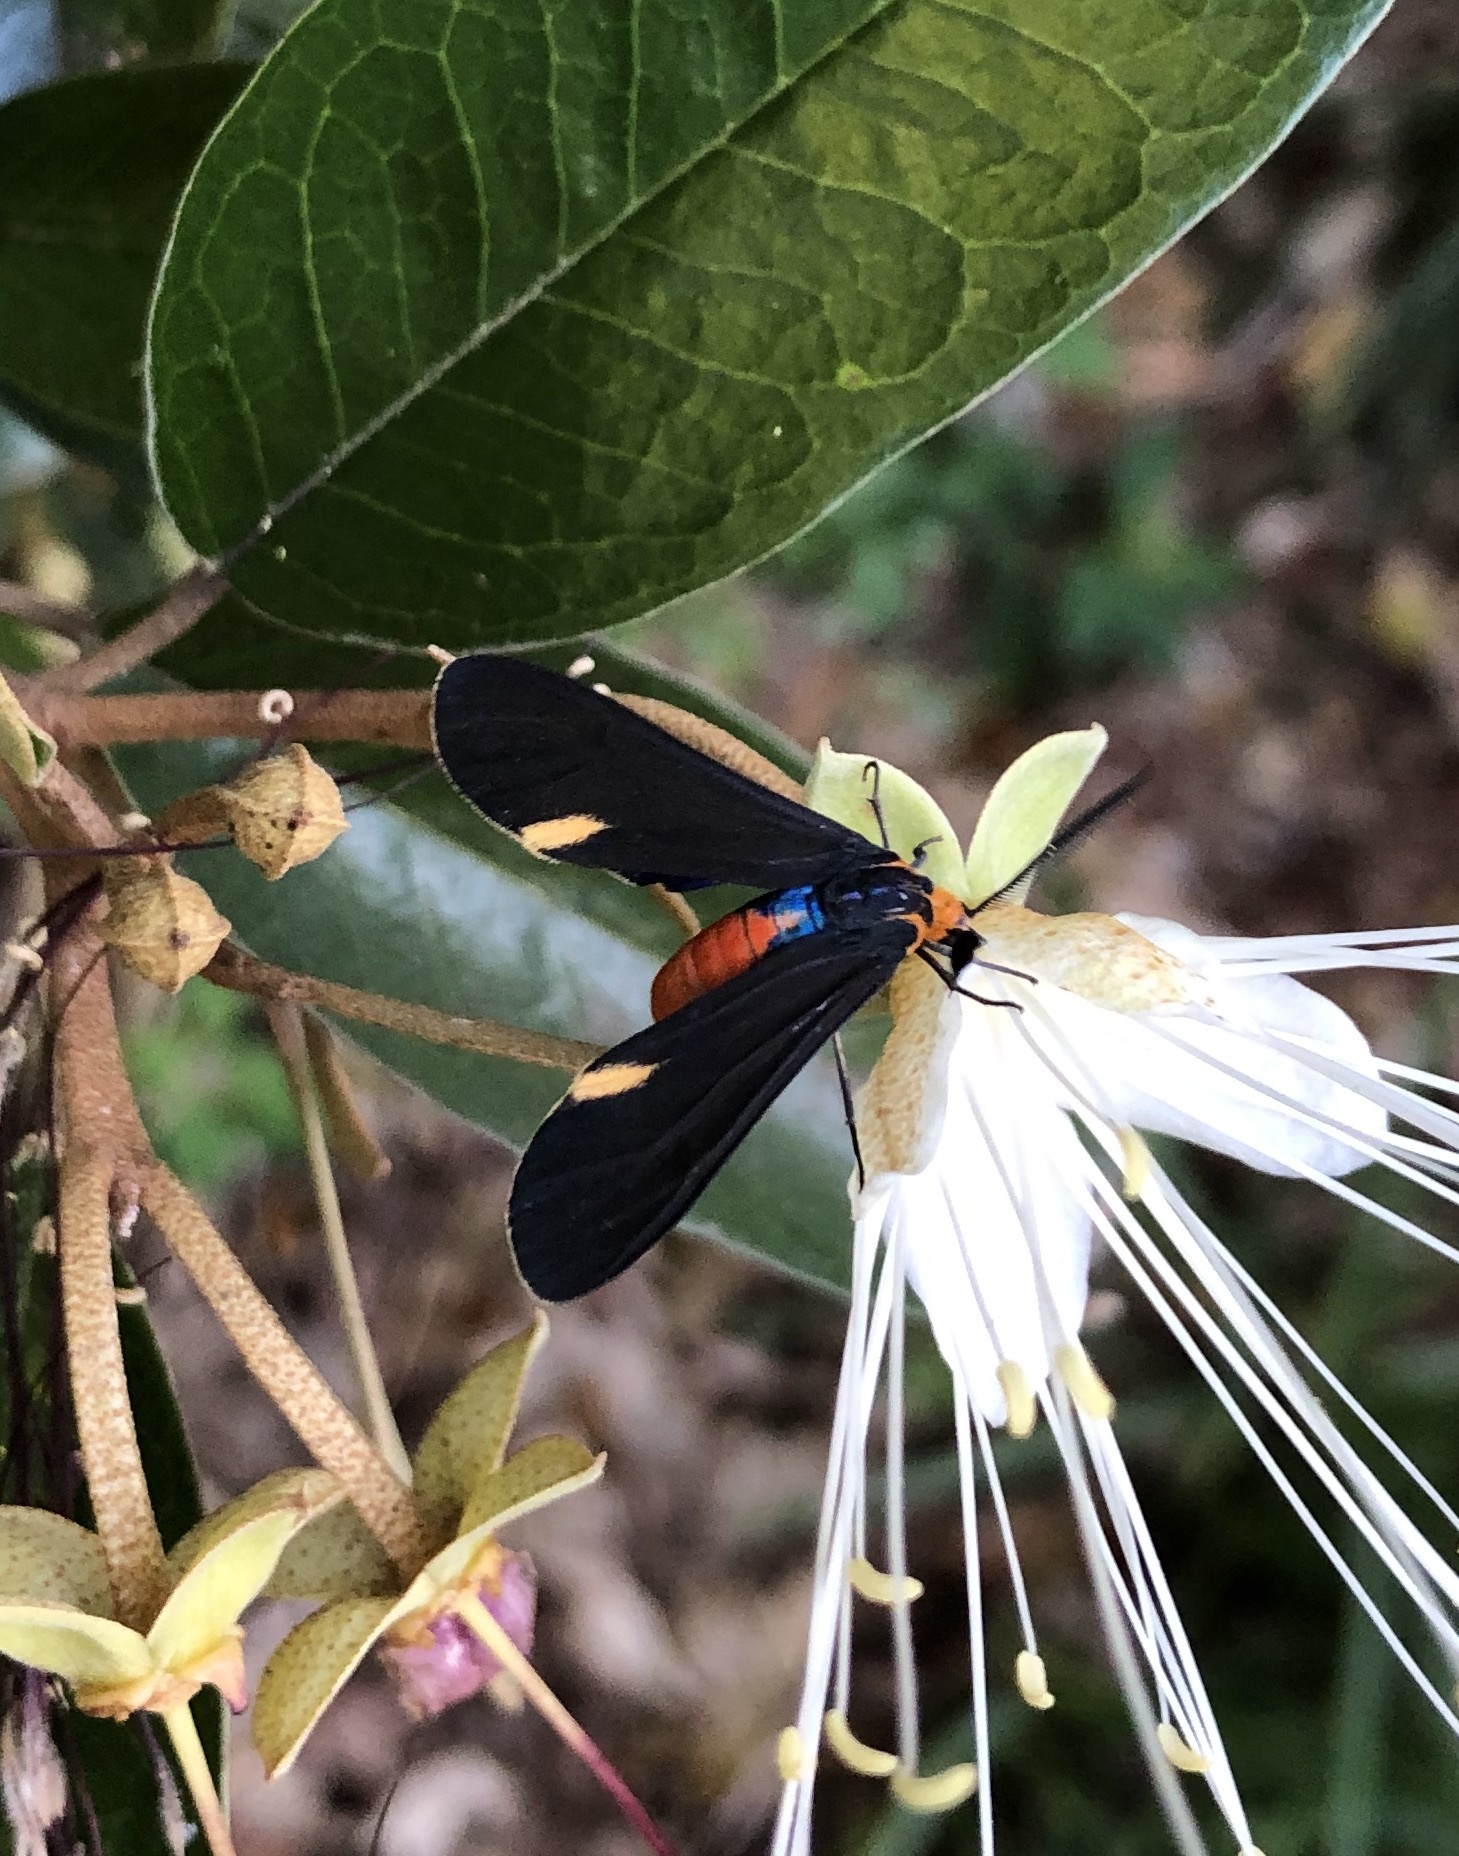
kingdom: Animalia
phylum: Arthropoda
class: Insecta
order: Lepidoptera
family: Erebidae
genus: Dahana
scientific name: Dahana atripennis
